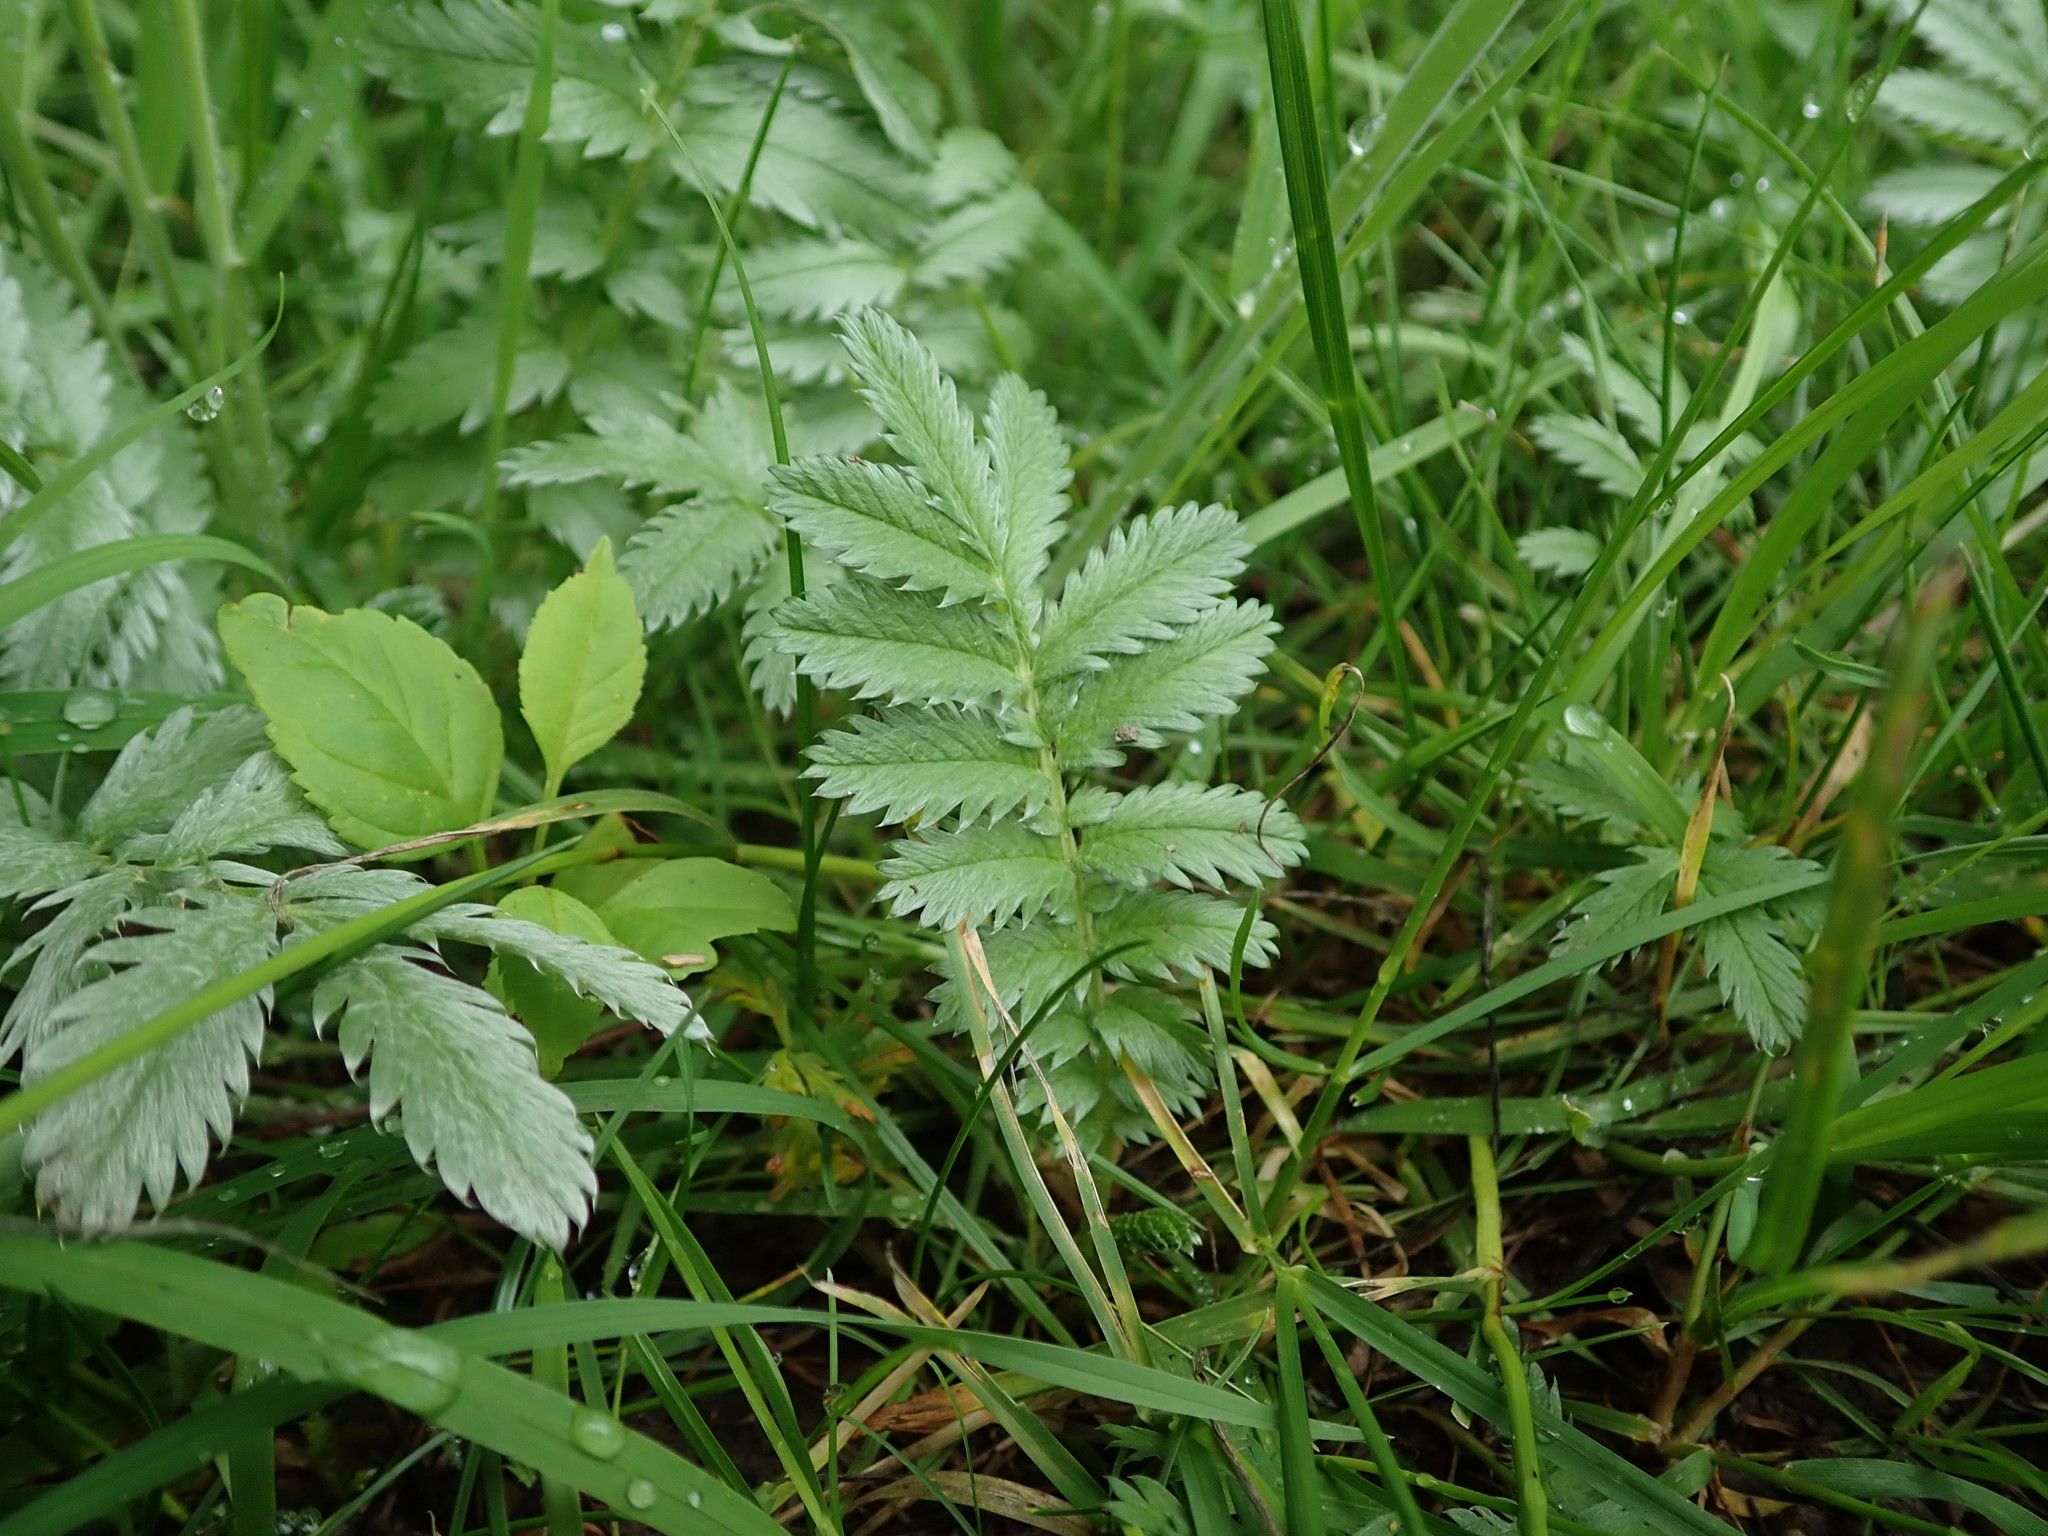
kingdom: Plantae
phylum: Tracheophyta
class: Magnoliopsida
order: Rosales
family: Rosaceae
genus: Argentina
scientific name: Argentina anserina
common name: Common silverweed
